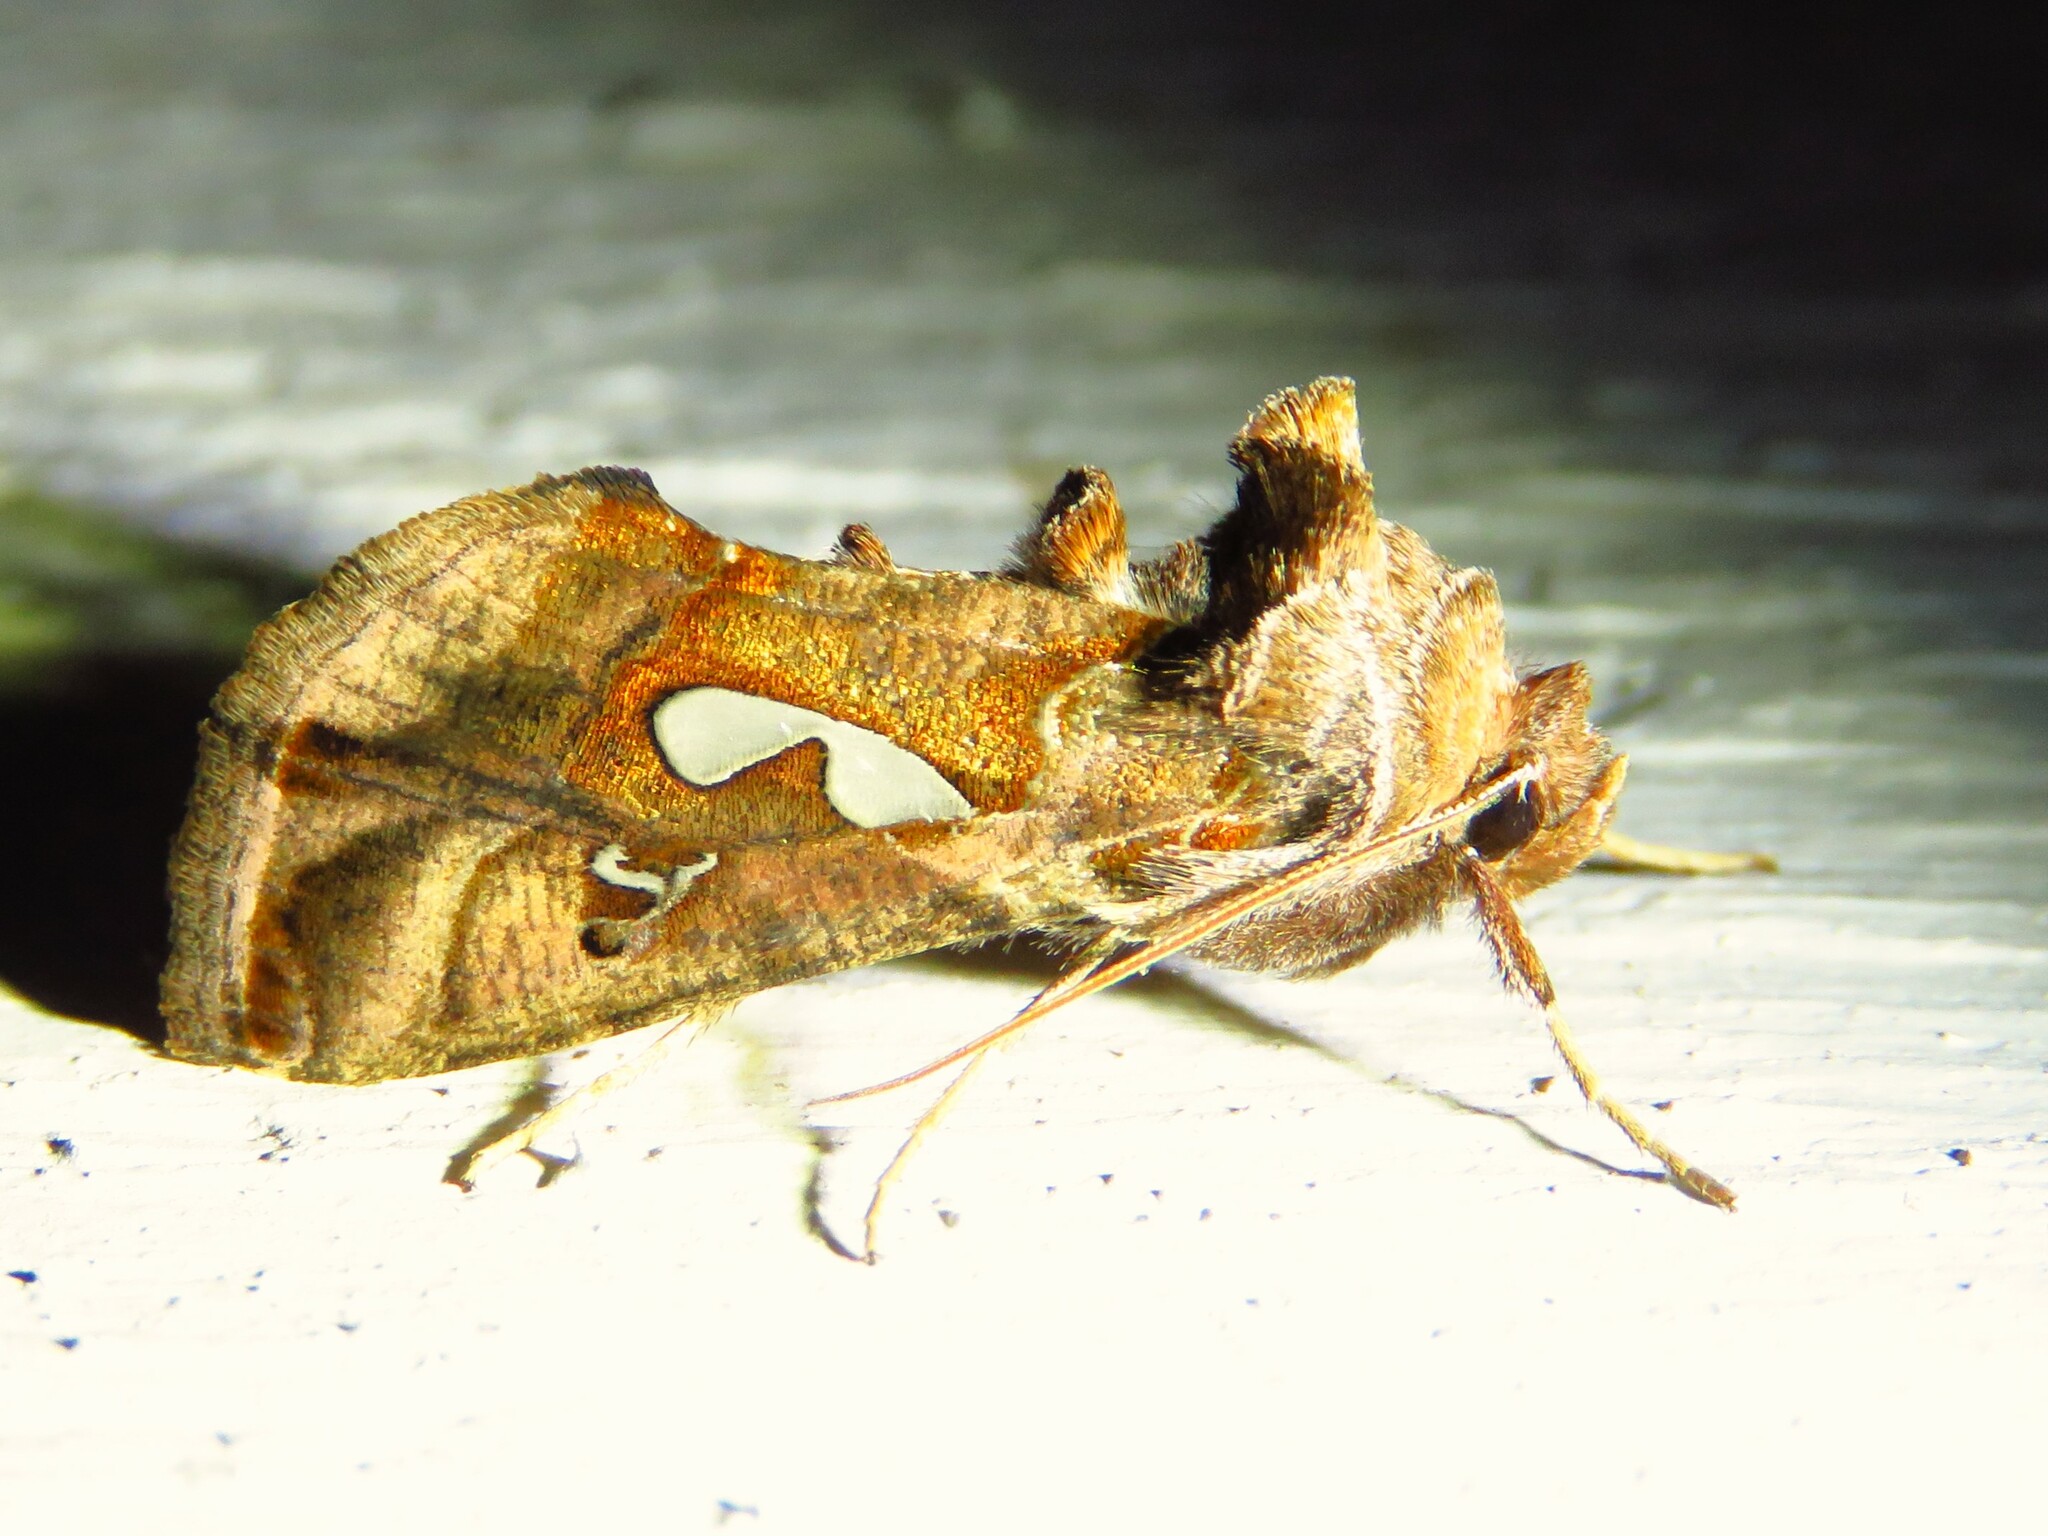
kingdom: Animalia
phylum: Arthropoda
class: Insecta
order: Lepidoptera
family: Noctuidae
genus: Megalographa
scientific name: Megalographa biloba
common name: Cutworm
